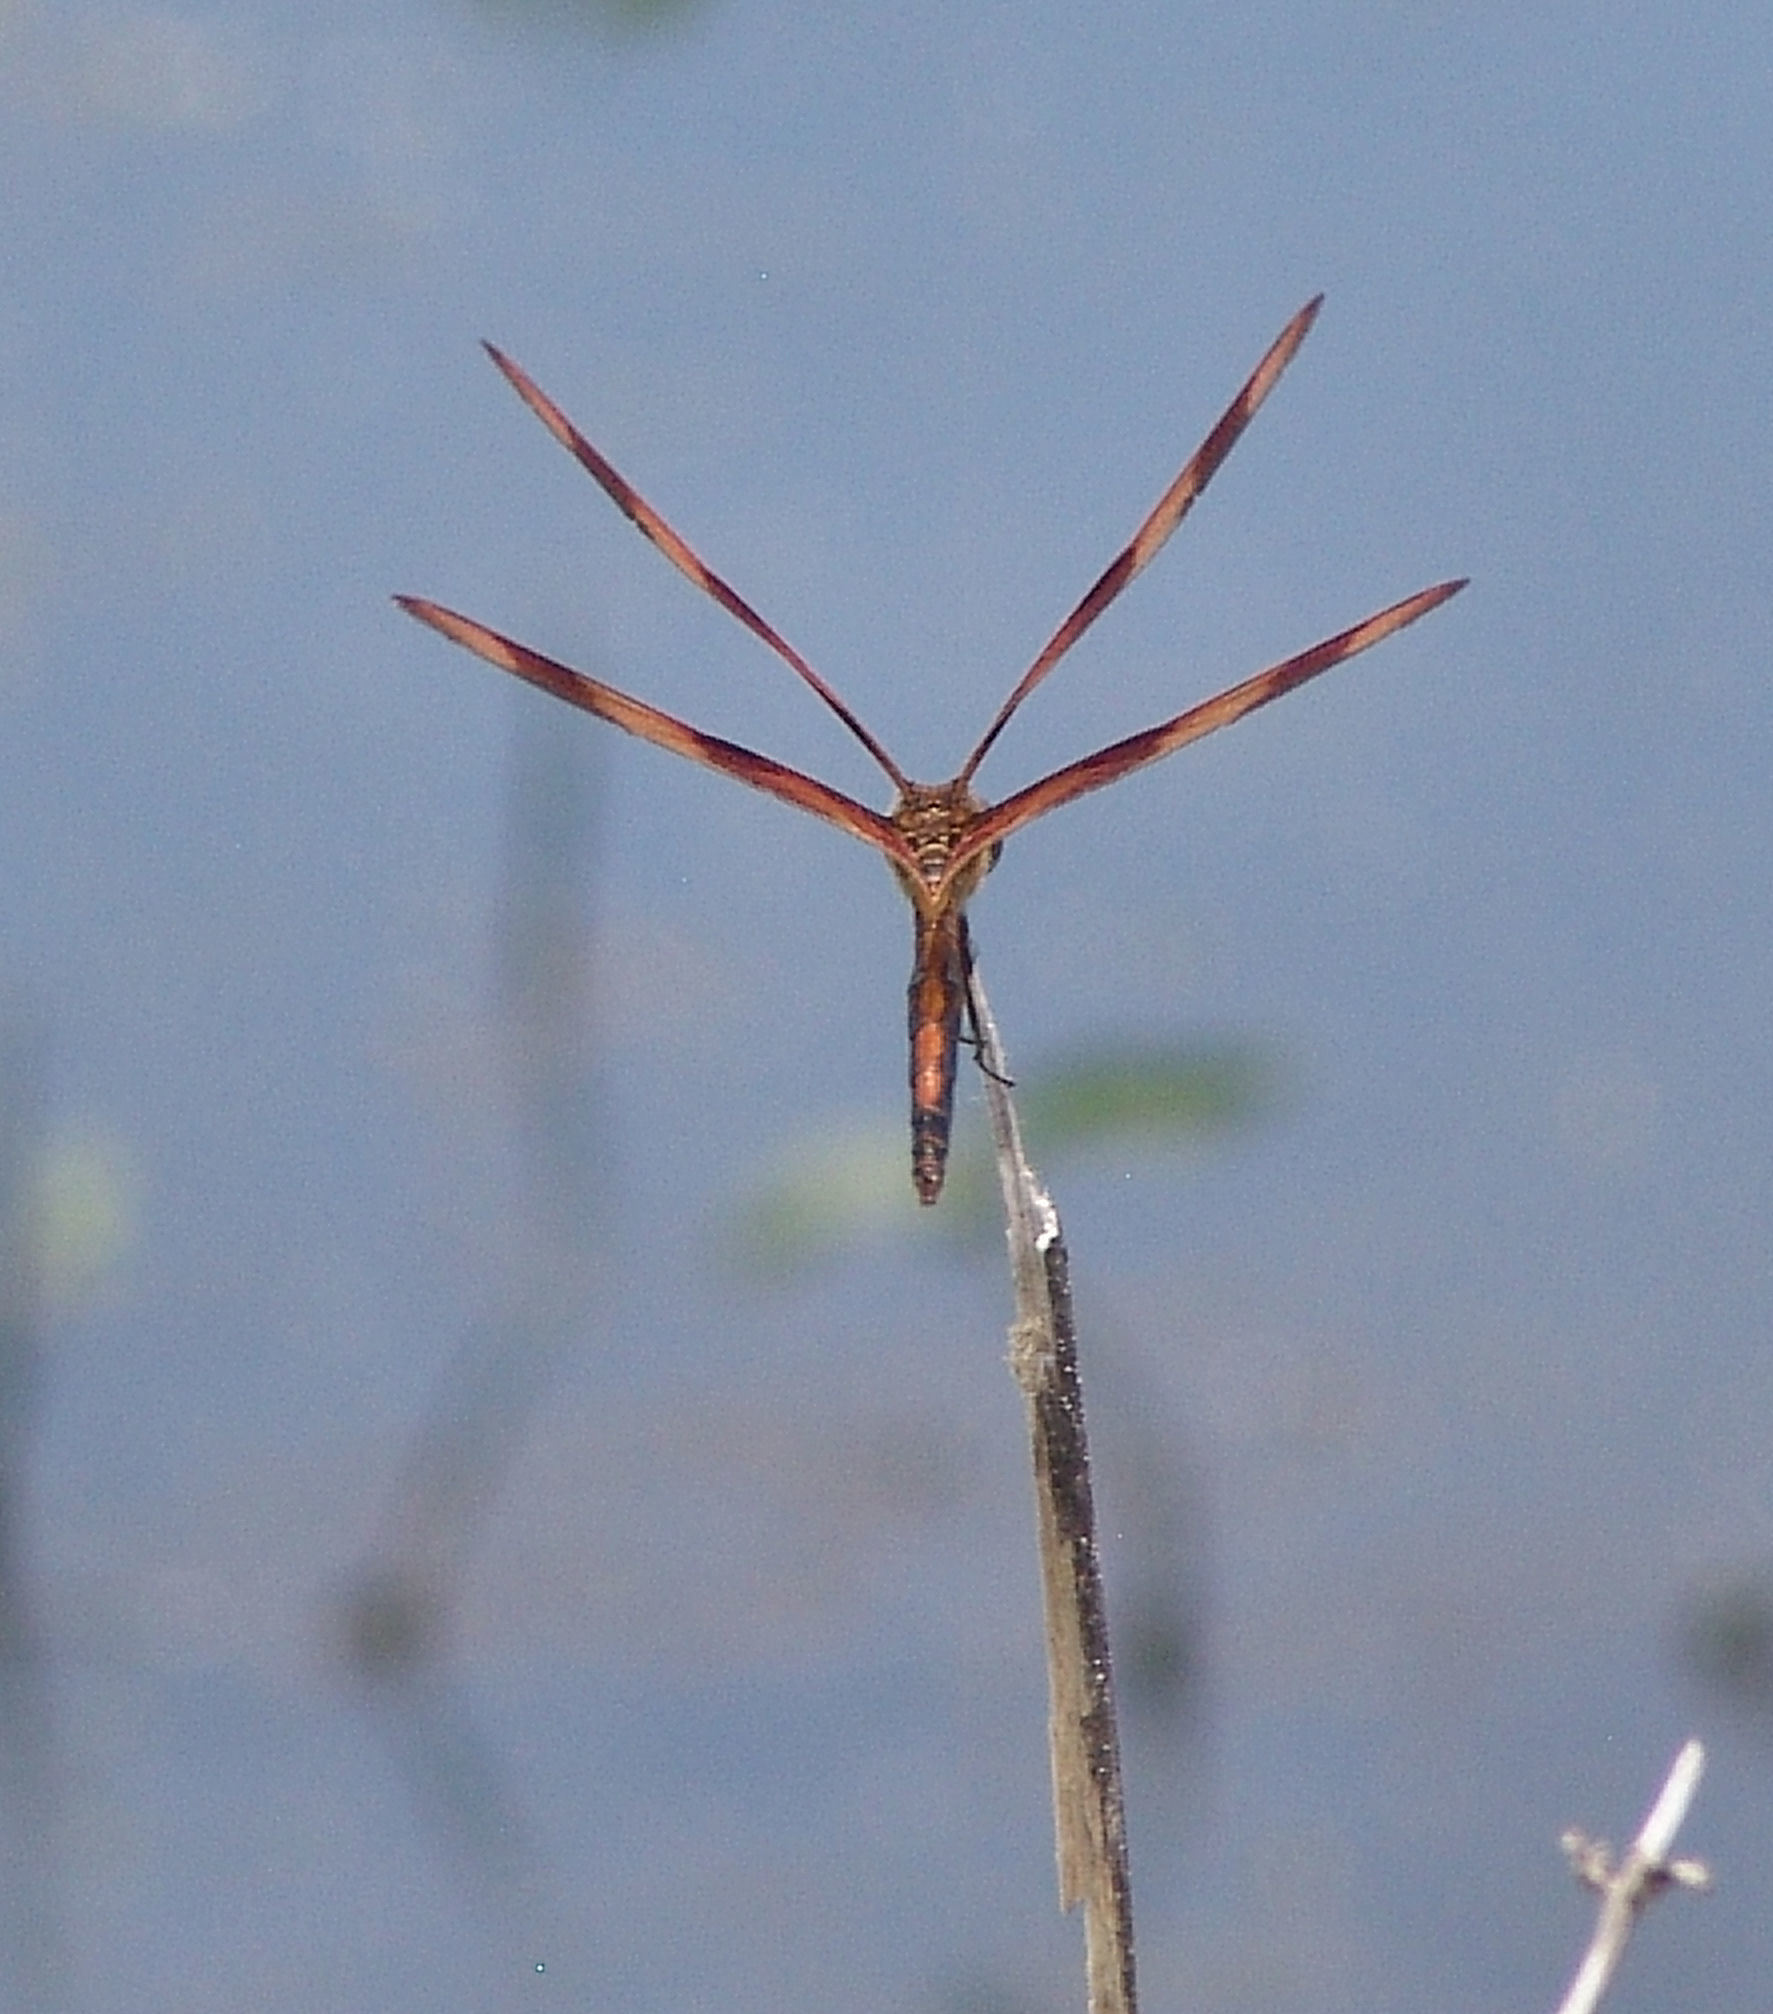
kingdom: Animalia
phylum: Arthropoda
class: Insecta
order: Odonata
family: Libellulidae
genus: Celithemis
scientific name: Celithemis eponina
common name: Halloween pennant
